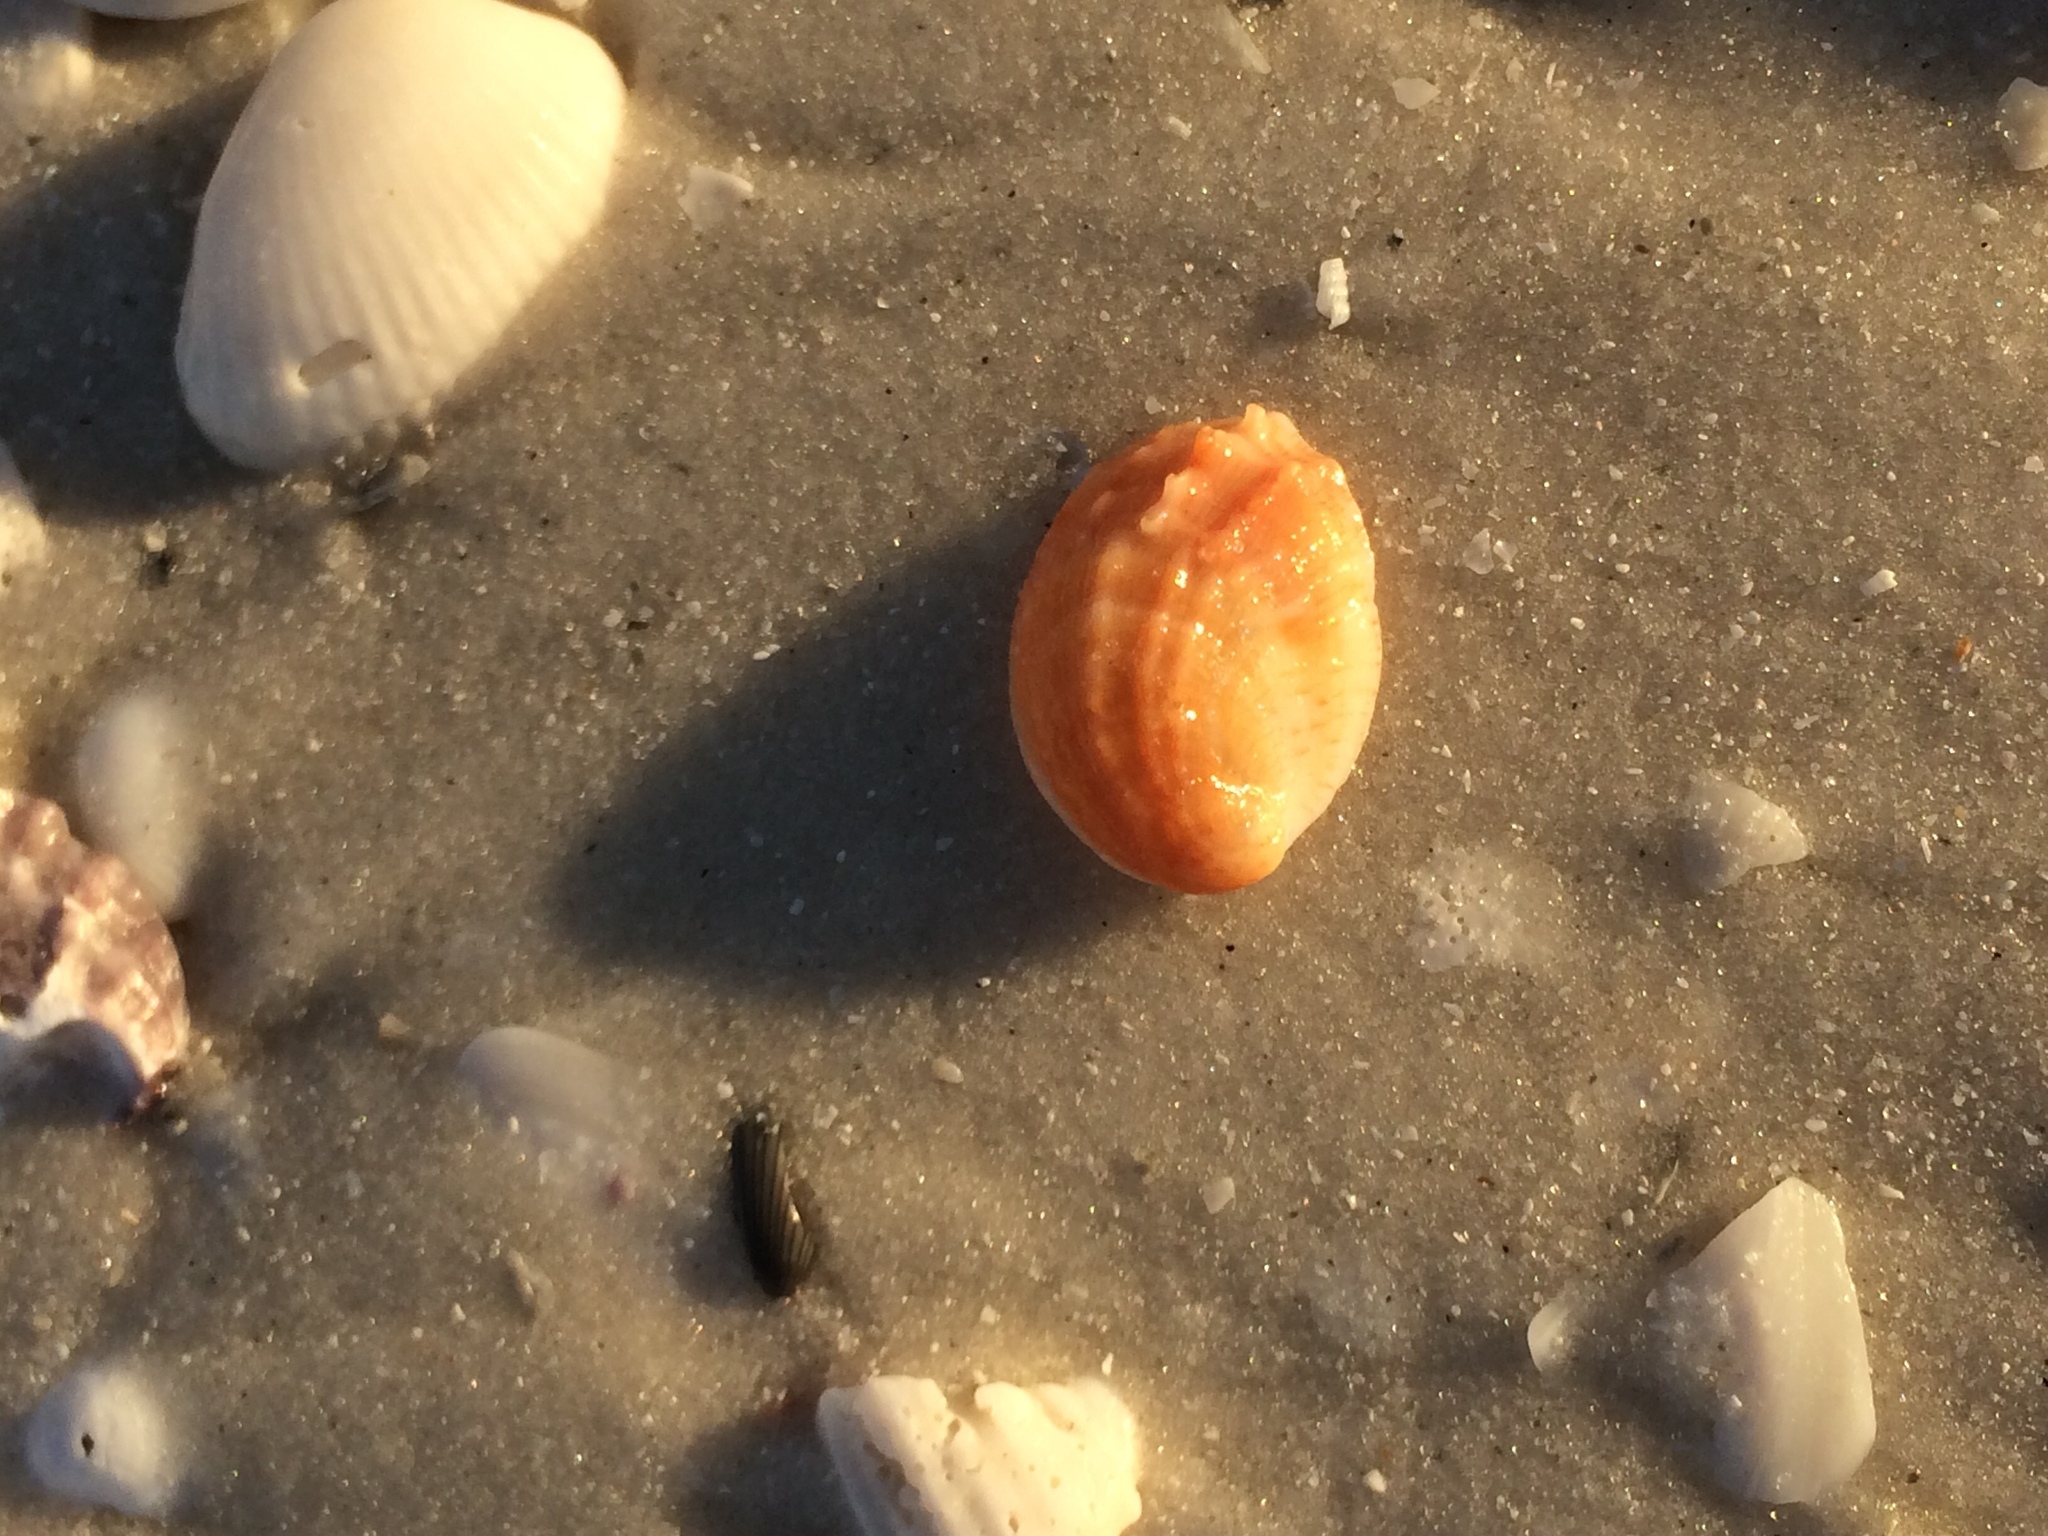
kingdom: Animalia
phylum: Mollusca
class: Gastropoda
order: Littorinimorpha
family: Calyptraeidae
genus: Bostrycapulus
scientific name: Bostrycapulus aculeatus
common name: Spiny slippersnail
